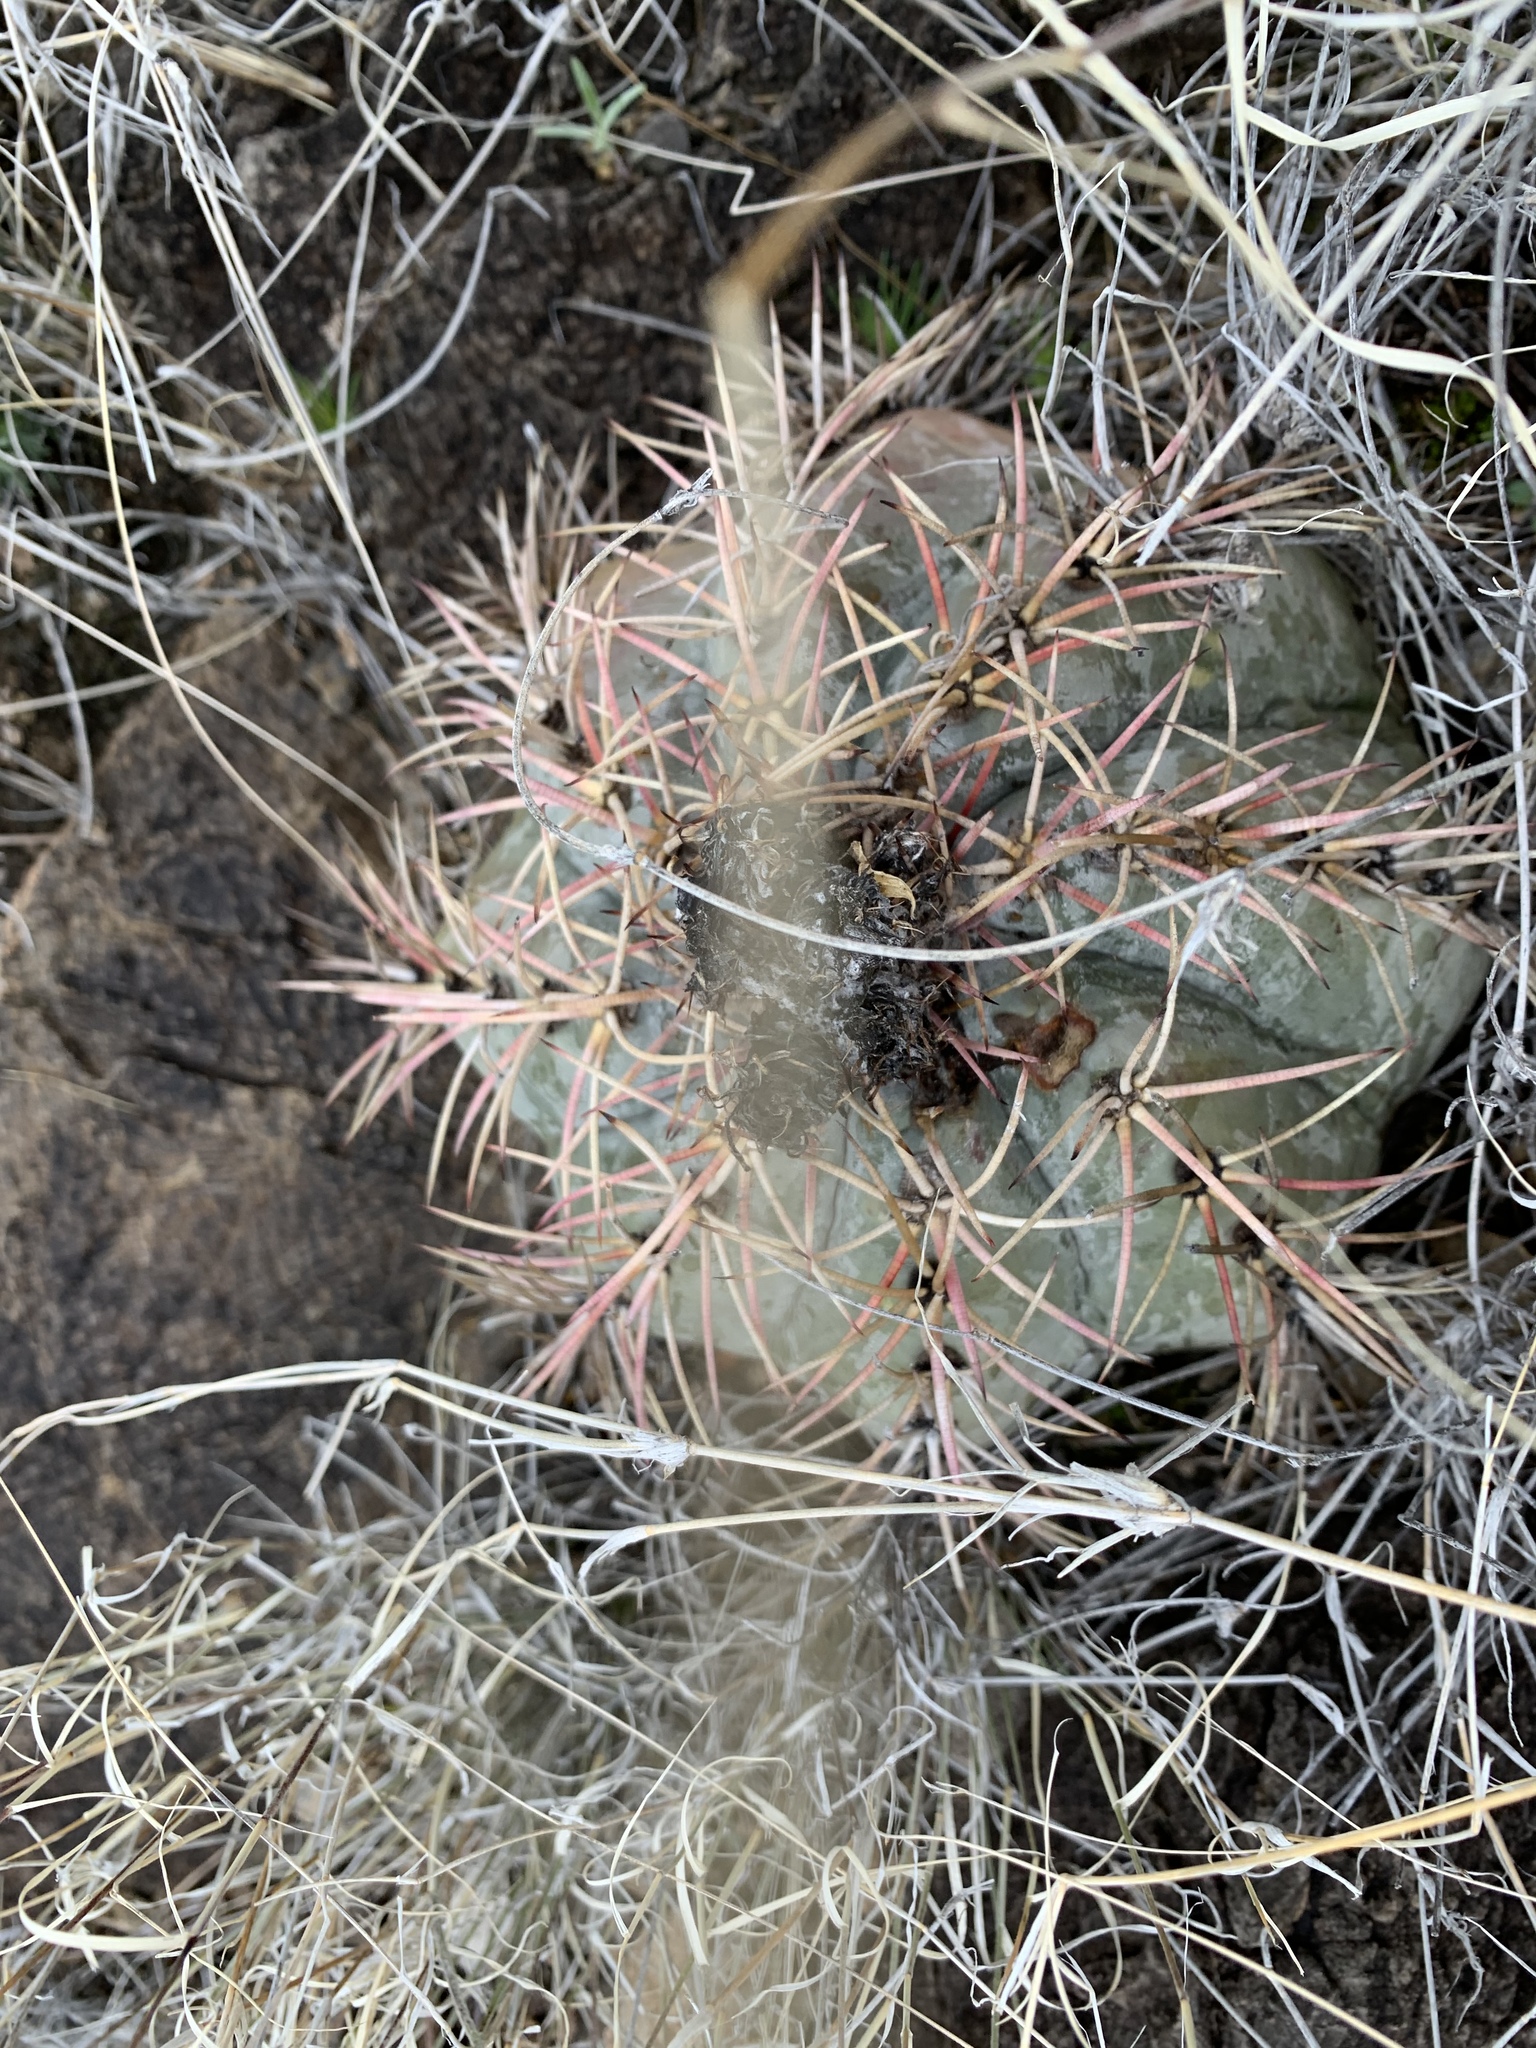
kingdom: Plantae
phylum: Tracheophyta
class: Magnoliopsida
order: Caryophyllales
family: Cactaceae
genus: Echinocactus
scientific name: Echinocactus horizonthalonius
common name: Devilshead
